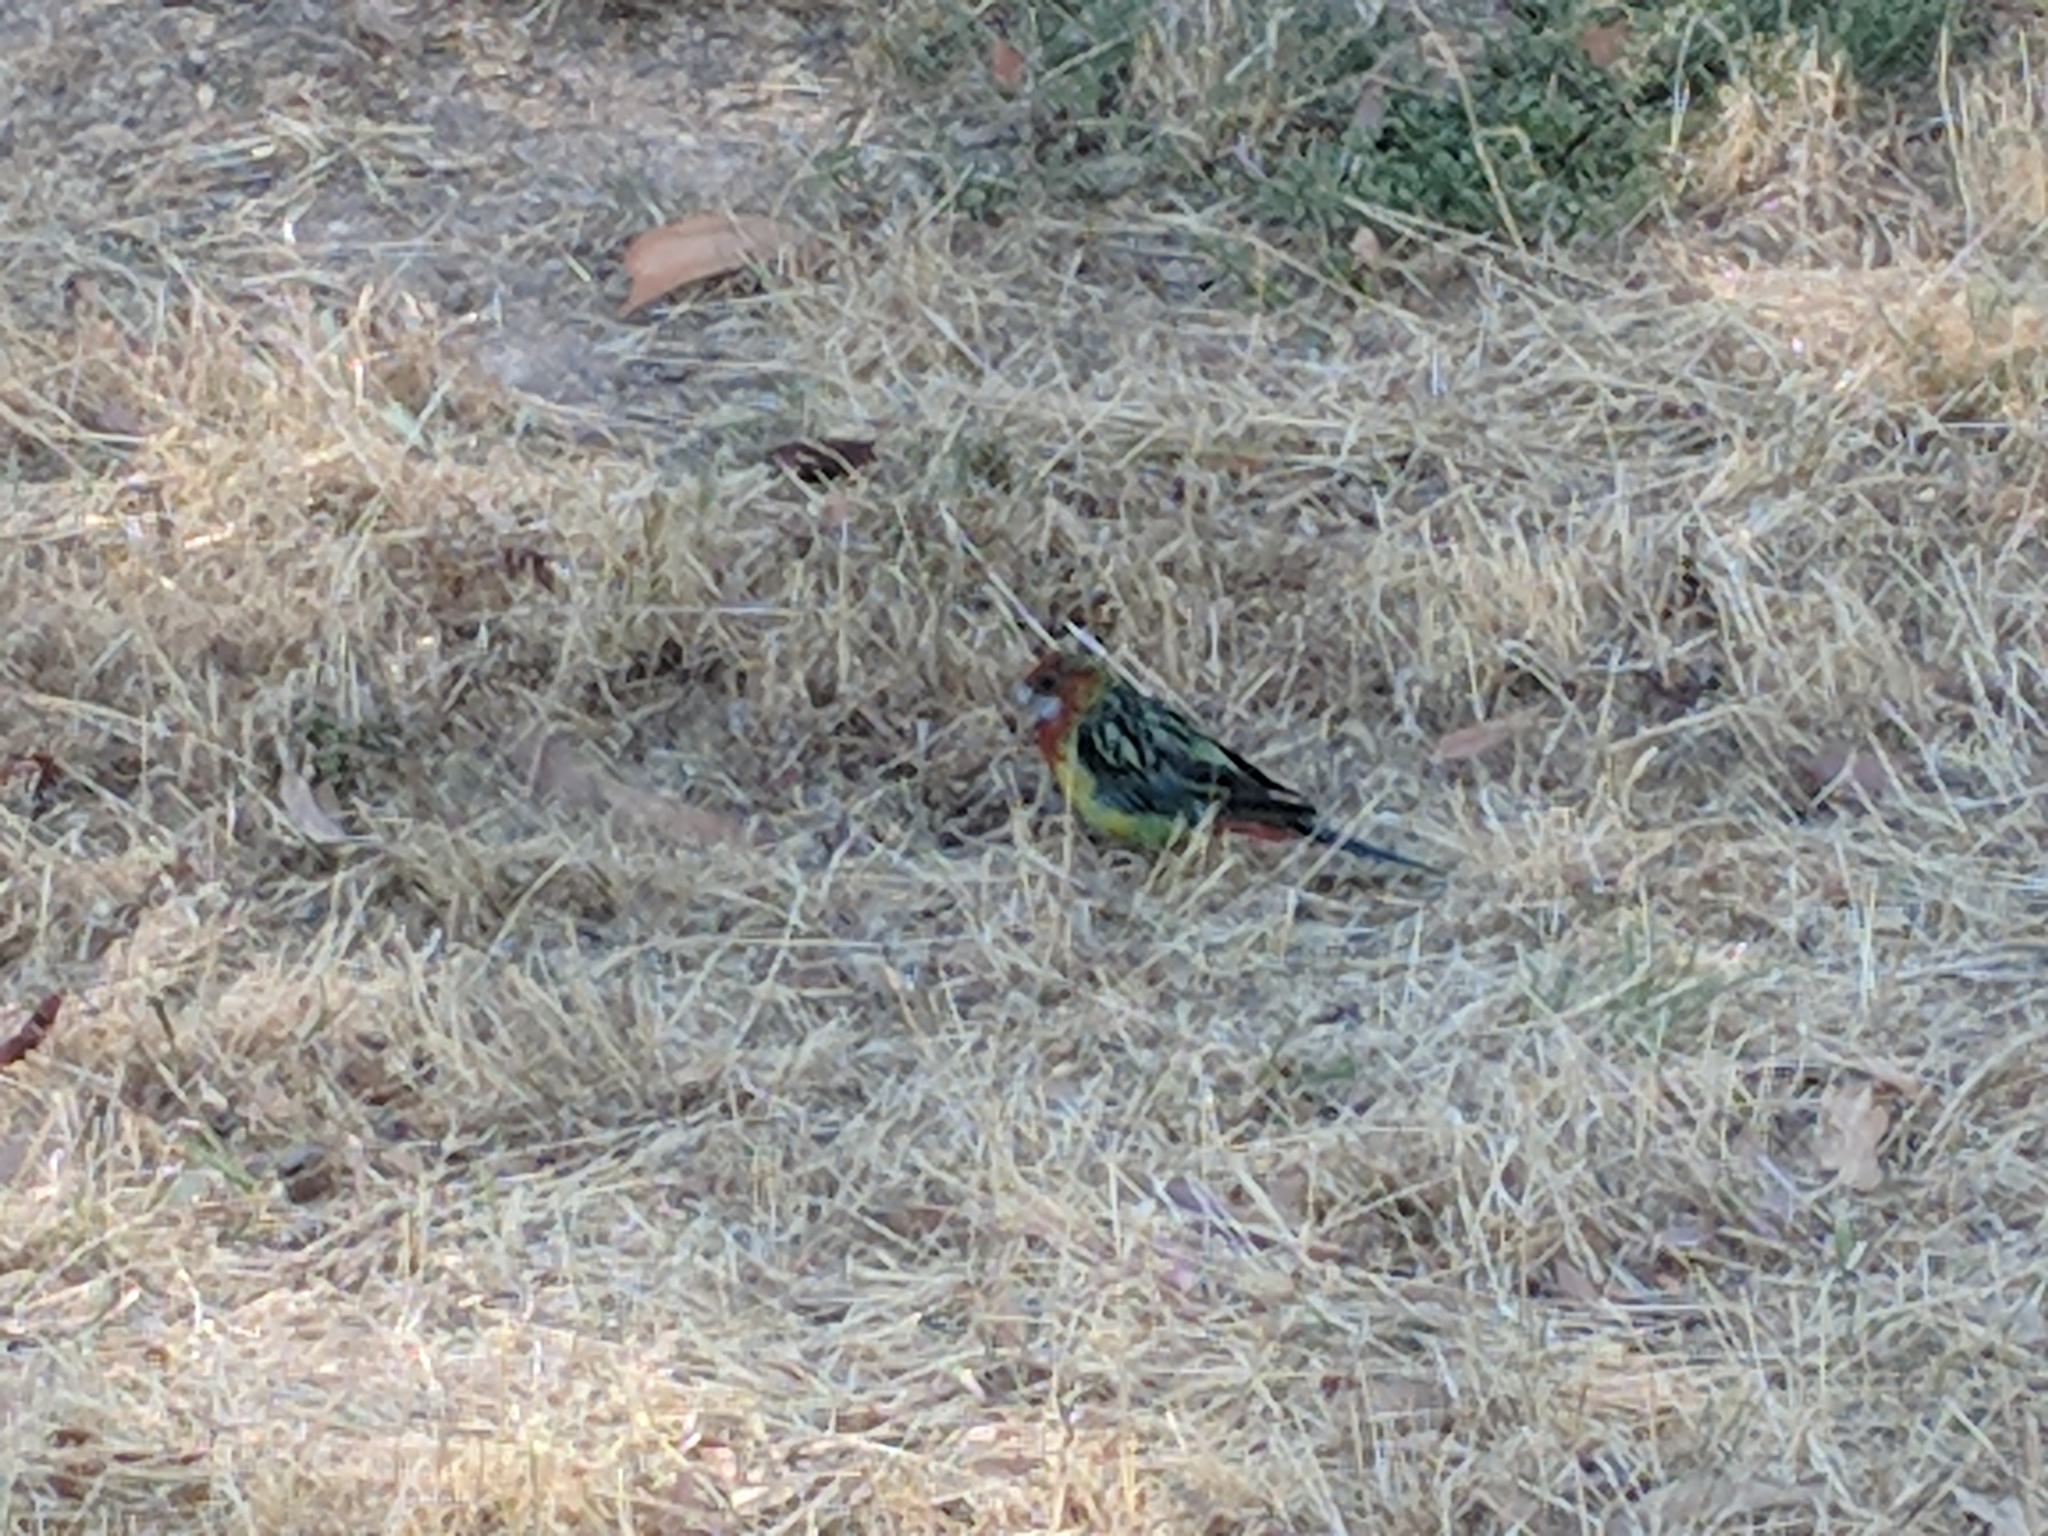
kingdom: Animalia
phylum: Chordata
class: Aves
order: Psittaciformes
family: Psittacidae
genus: Platycercus
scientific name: Platycercus eximius
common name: Eastern rosella
